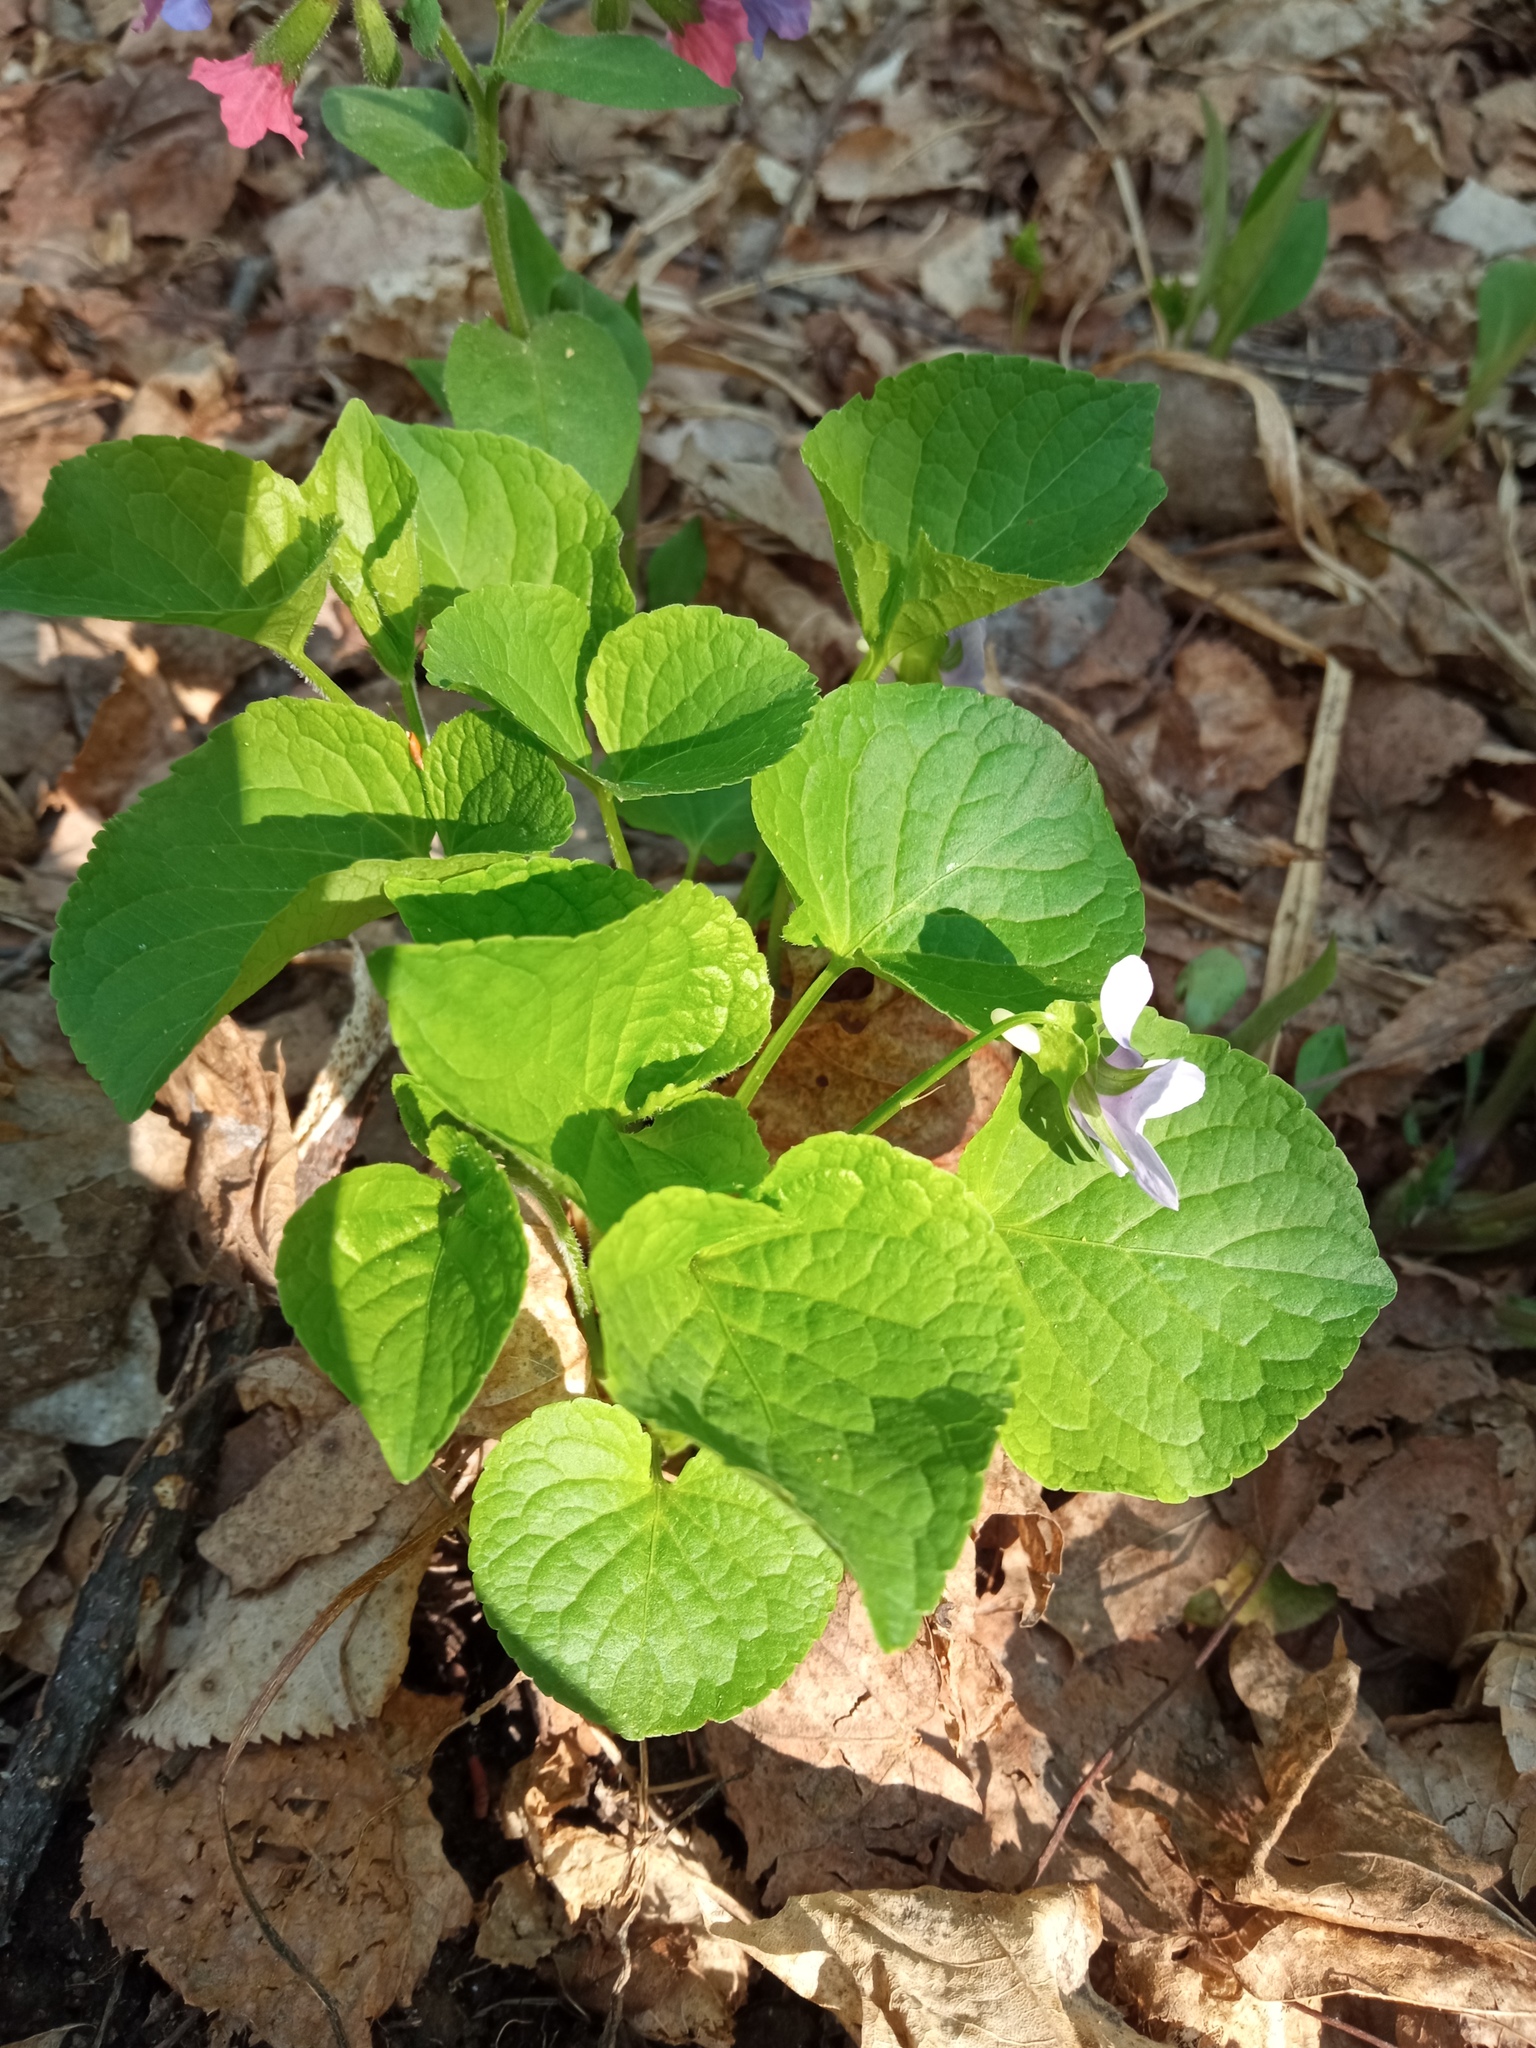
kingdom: Plantae
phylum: Tracheophyta
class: Magnoliopsida
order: Malpighiales
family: Violaceae
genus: Viola
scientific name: Viola mirabilis
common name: Wonder violet
